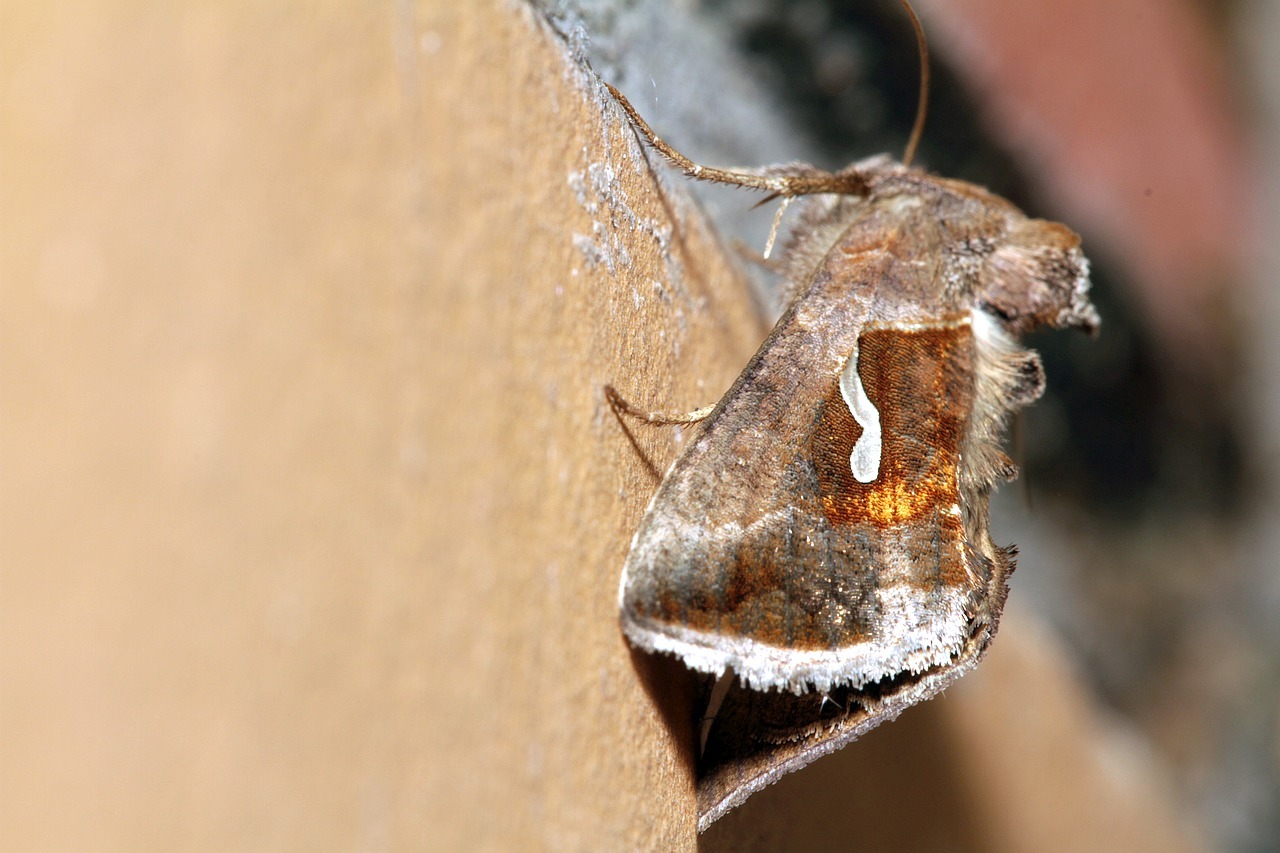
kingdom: Animalia
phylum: Arthropoda
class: Insecta
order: Lepidoptera
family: Noctuidae
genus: Macdunnoughia
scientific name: Macdunnoughia confusa
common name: Dewick's plusia
